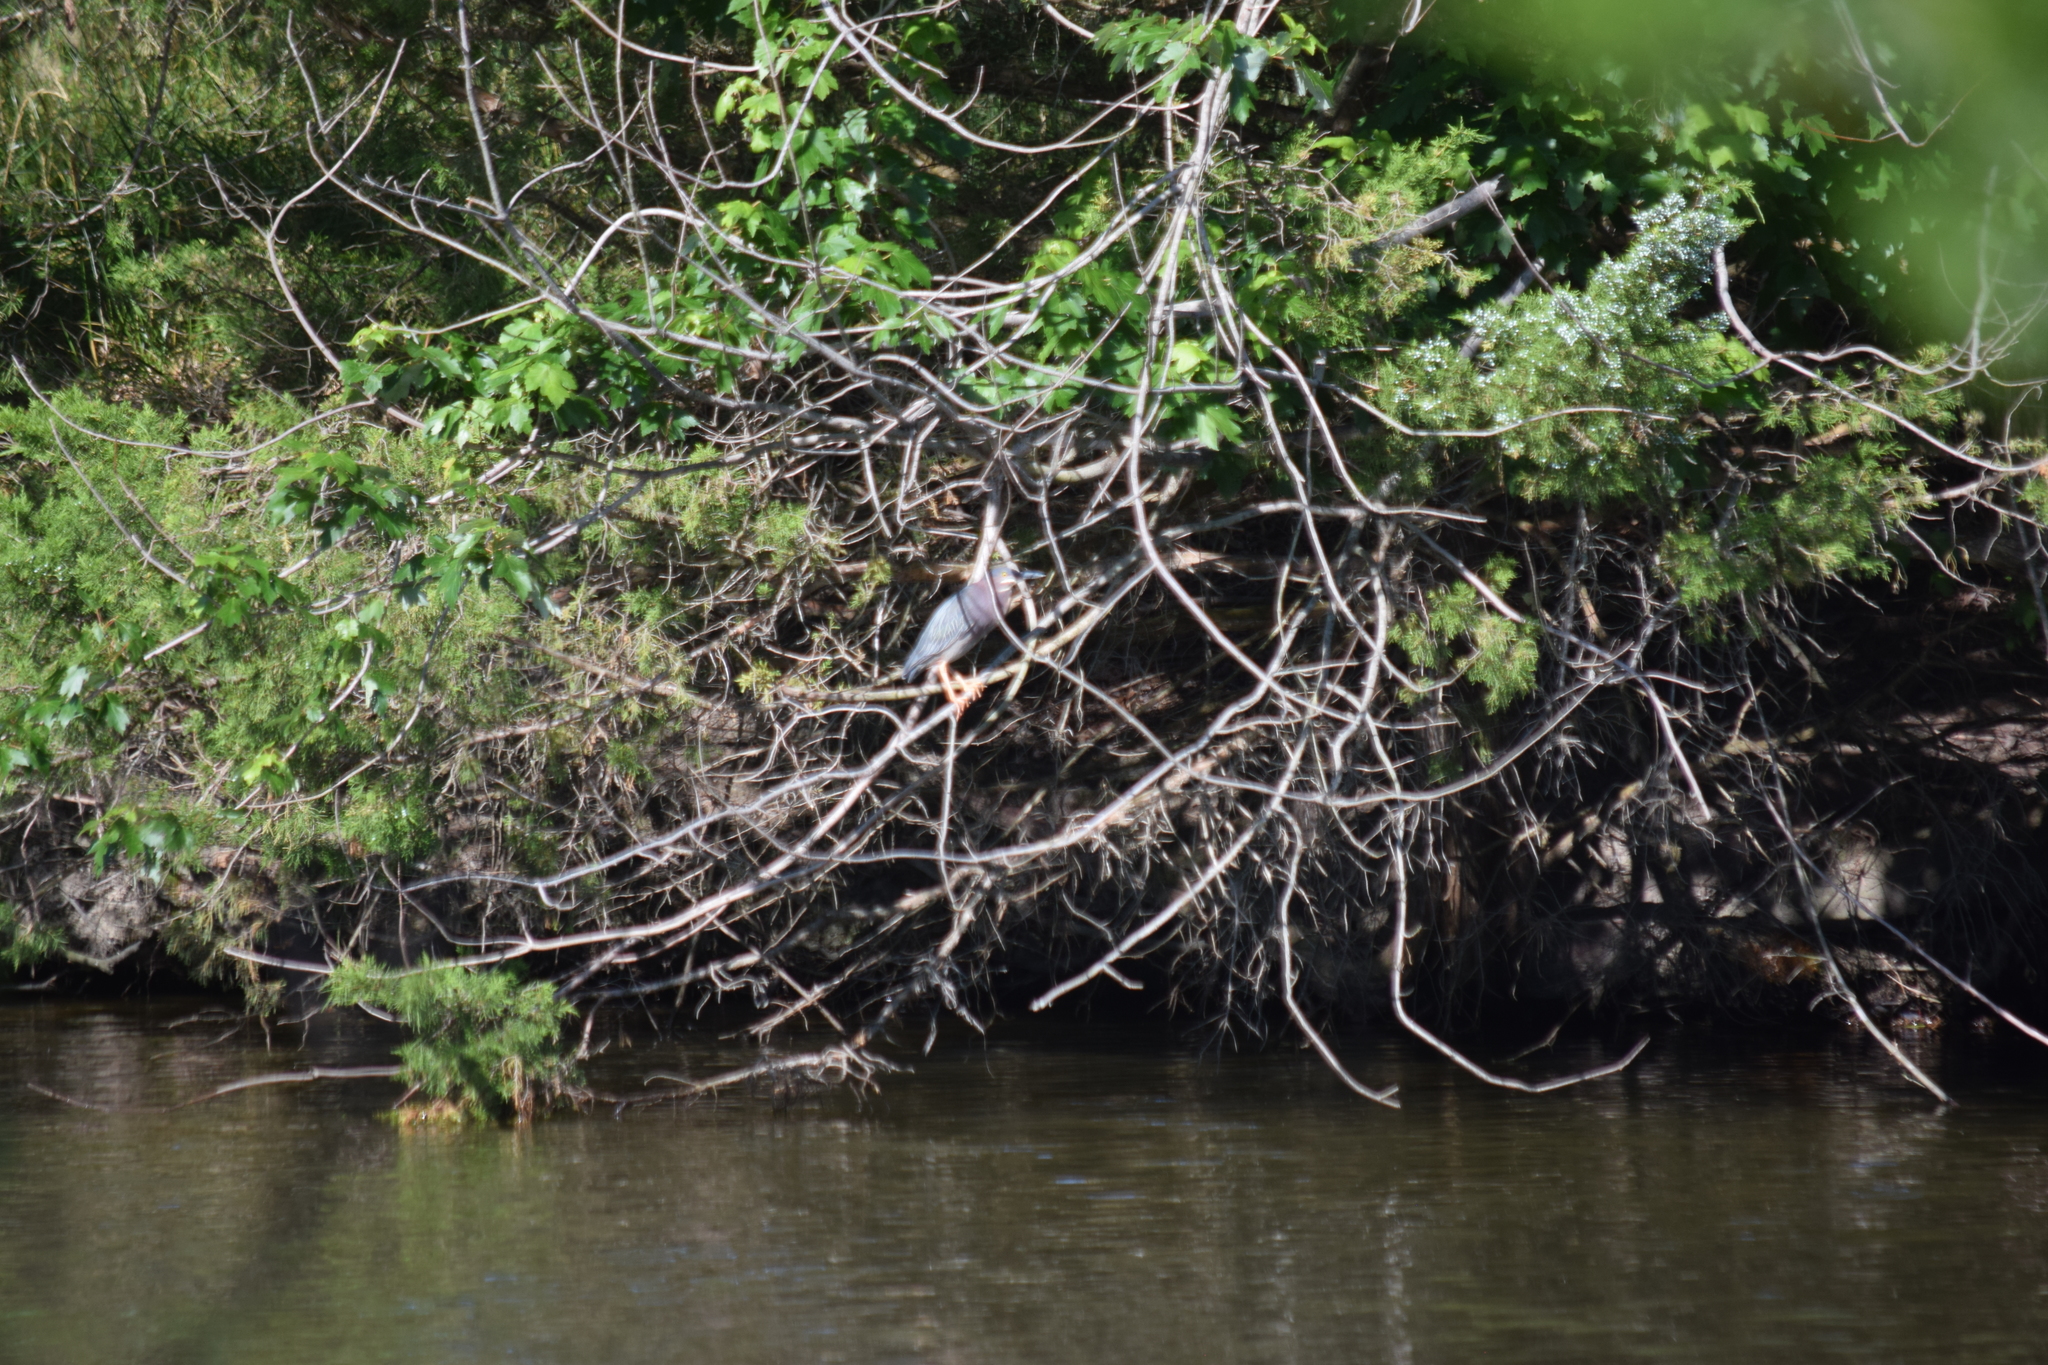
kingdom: Animalia
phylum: Chordata
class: Aves
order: Pelecaniformes
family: Ardeidae
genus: Butorides
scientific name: Butorides virescens
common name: Green heron
